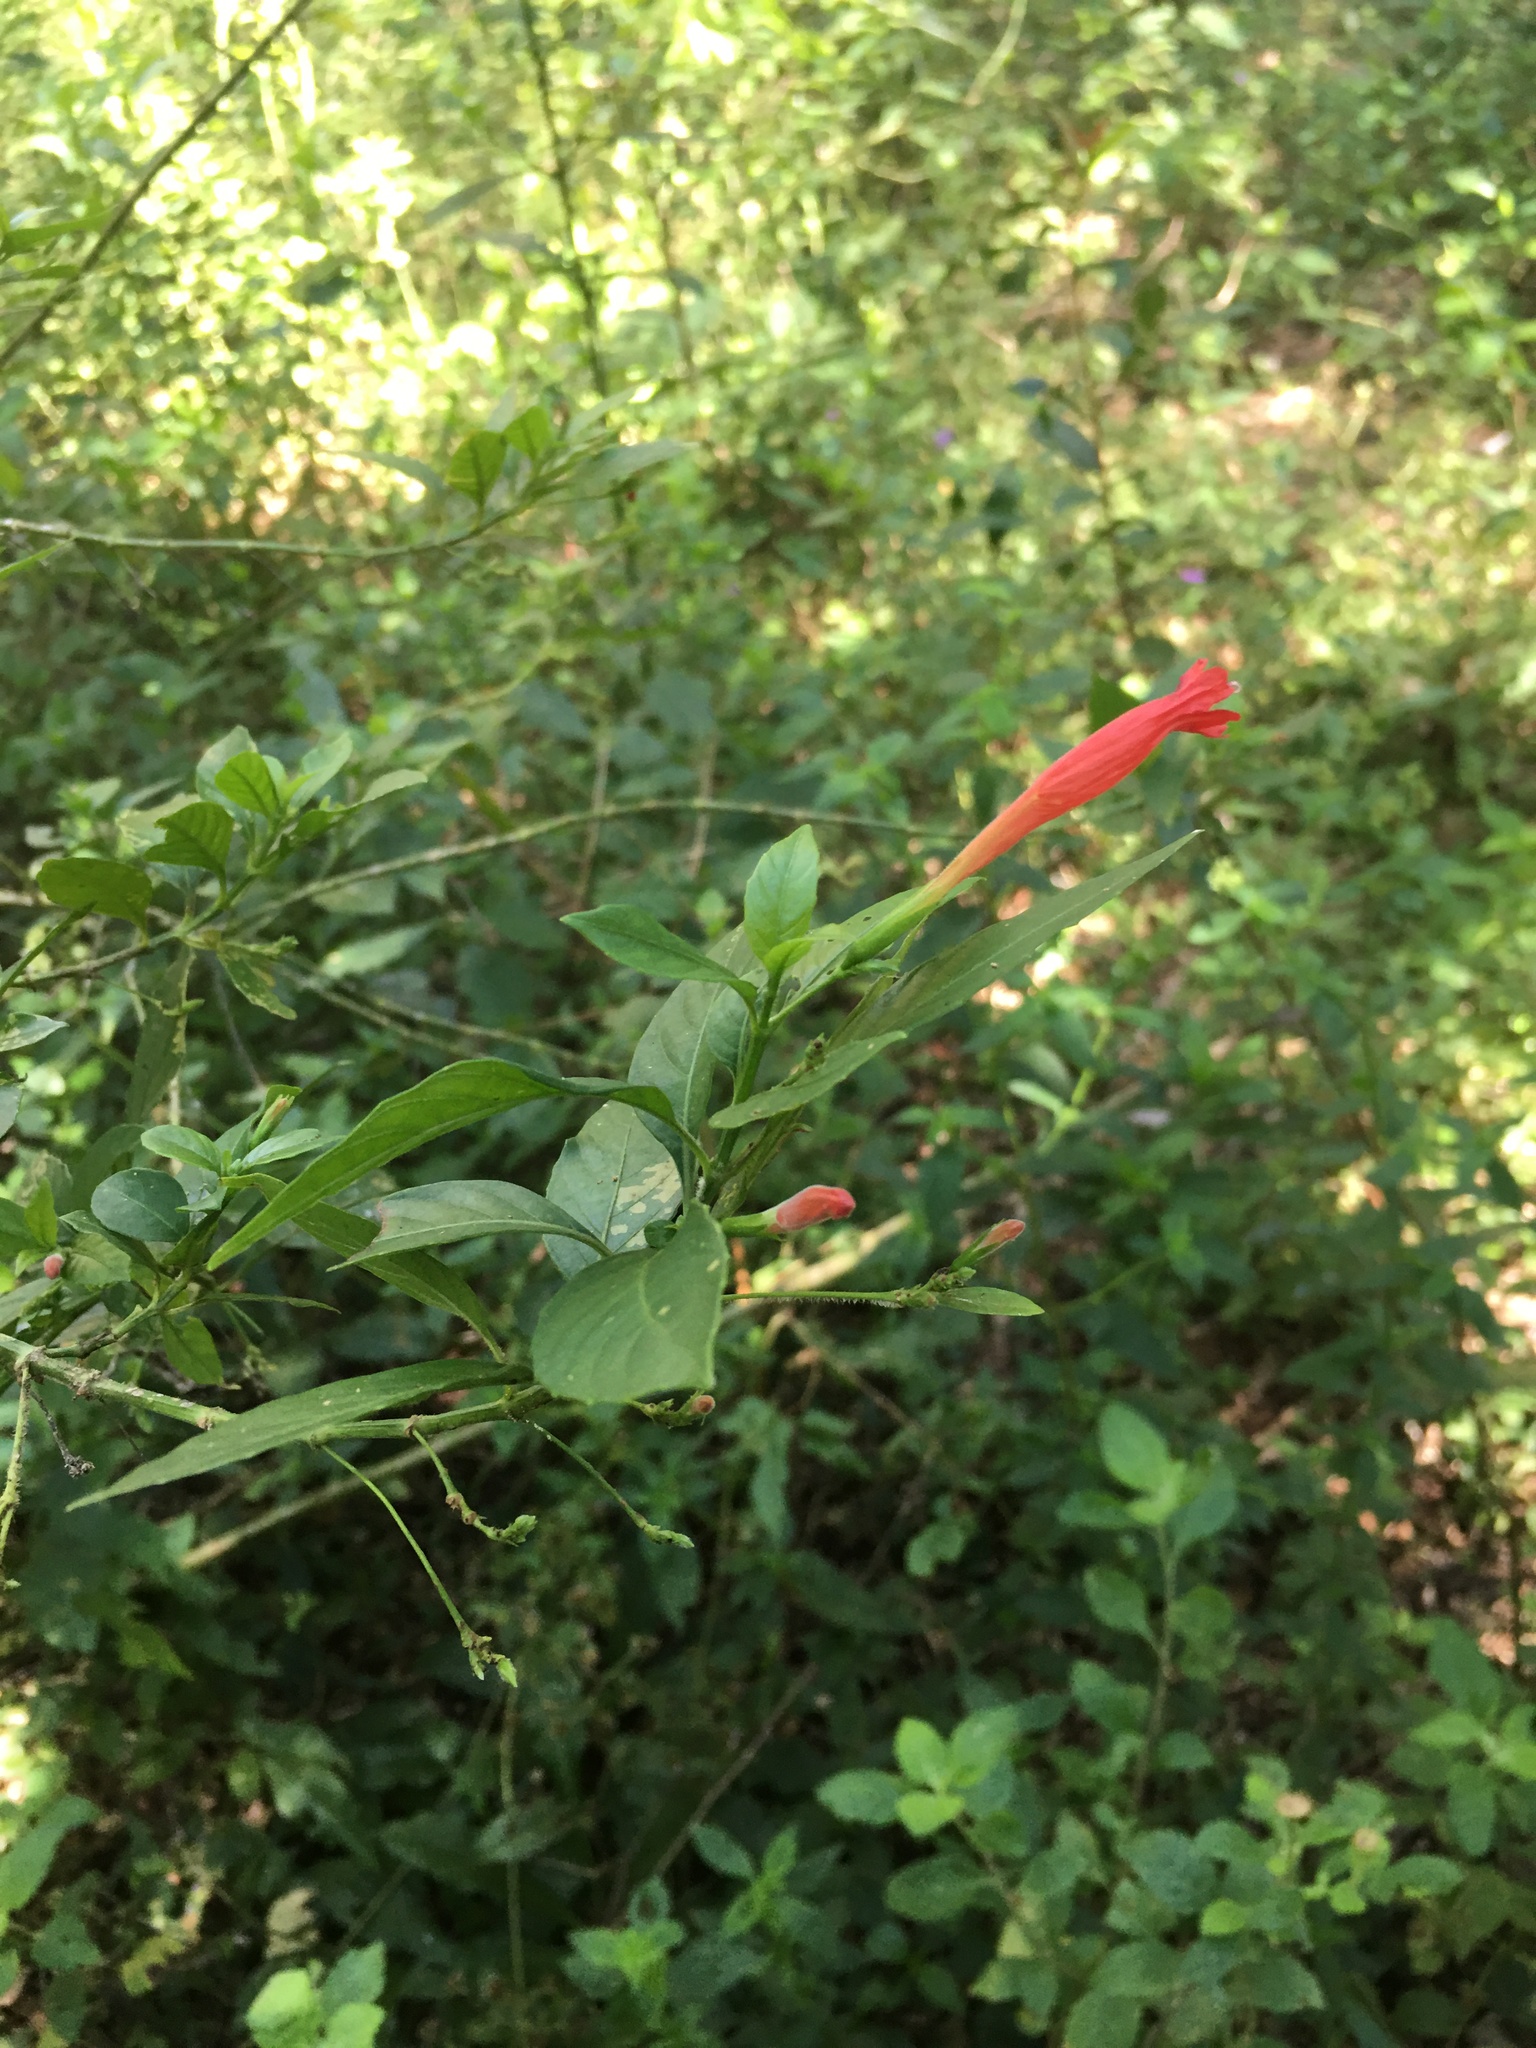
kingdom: Plantae
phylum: Tracheophyta
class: Magnoliopsida
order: Lamiales
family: Acanthaceae
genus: Ruellia
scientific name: Ruellia angustiflora
